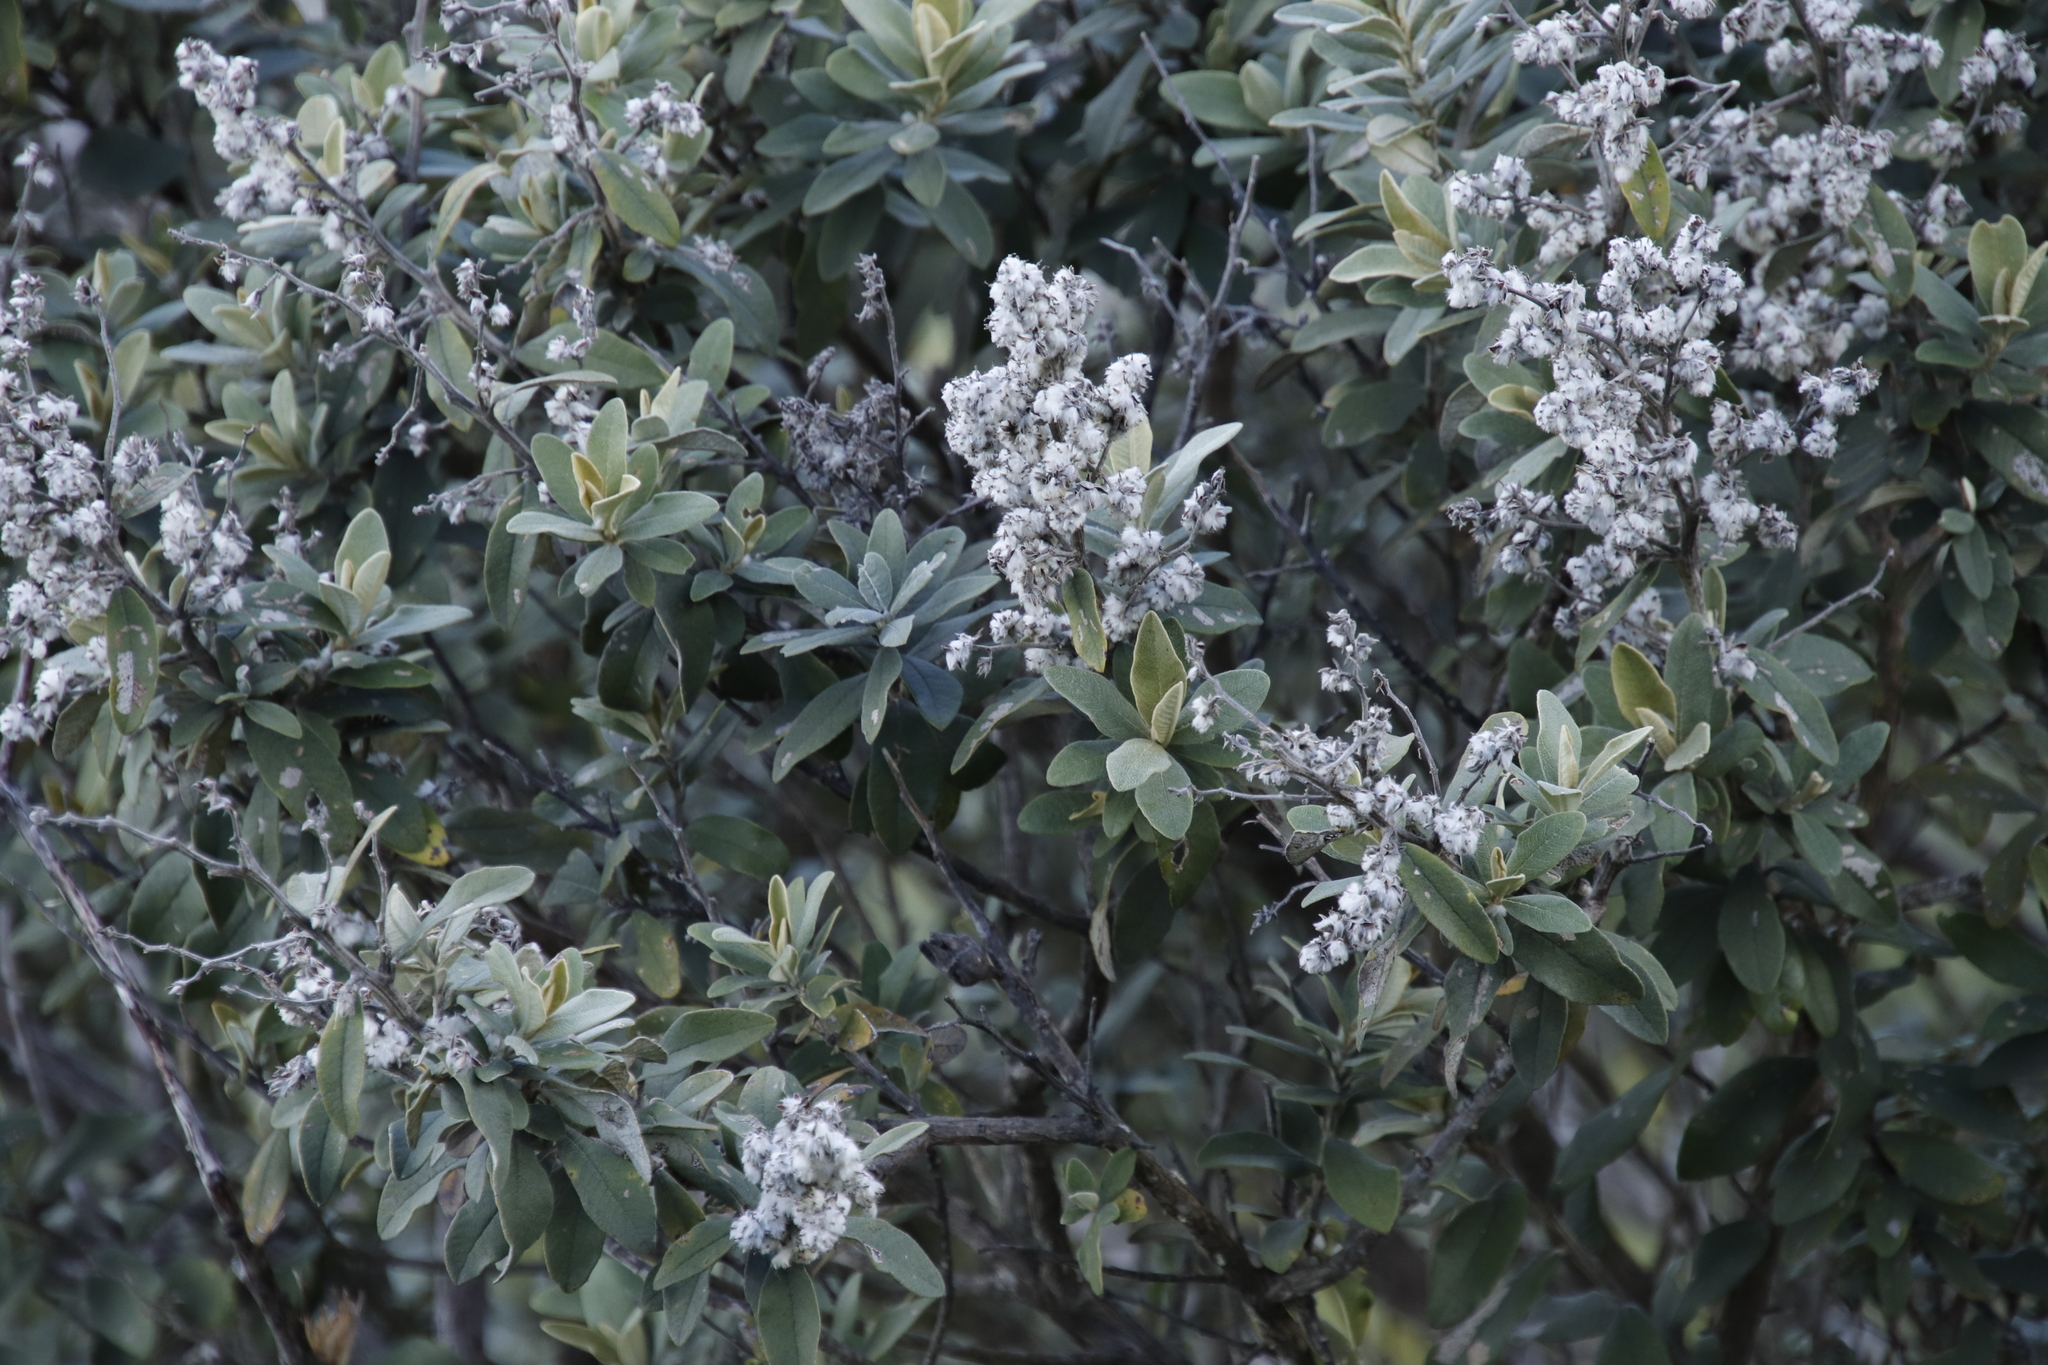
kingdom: Plantae
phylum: Tracheophyta
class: Magnoliopsida
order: Asterales
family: Asteraceae
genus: Tarchonanthus
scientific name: Tarchonanthus littoralis
